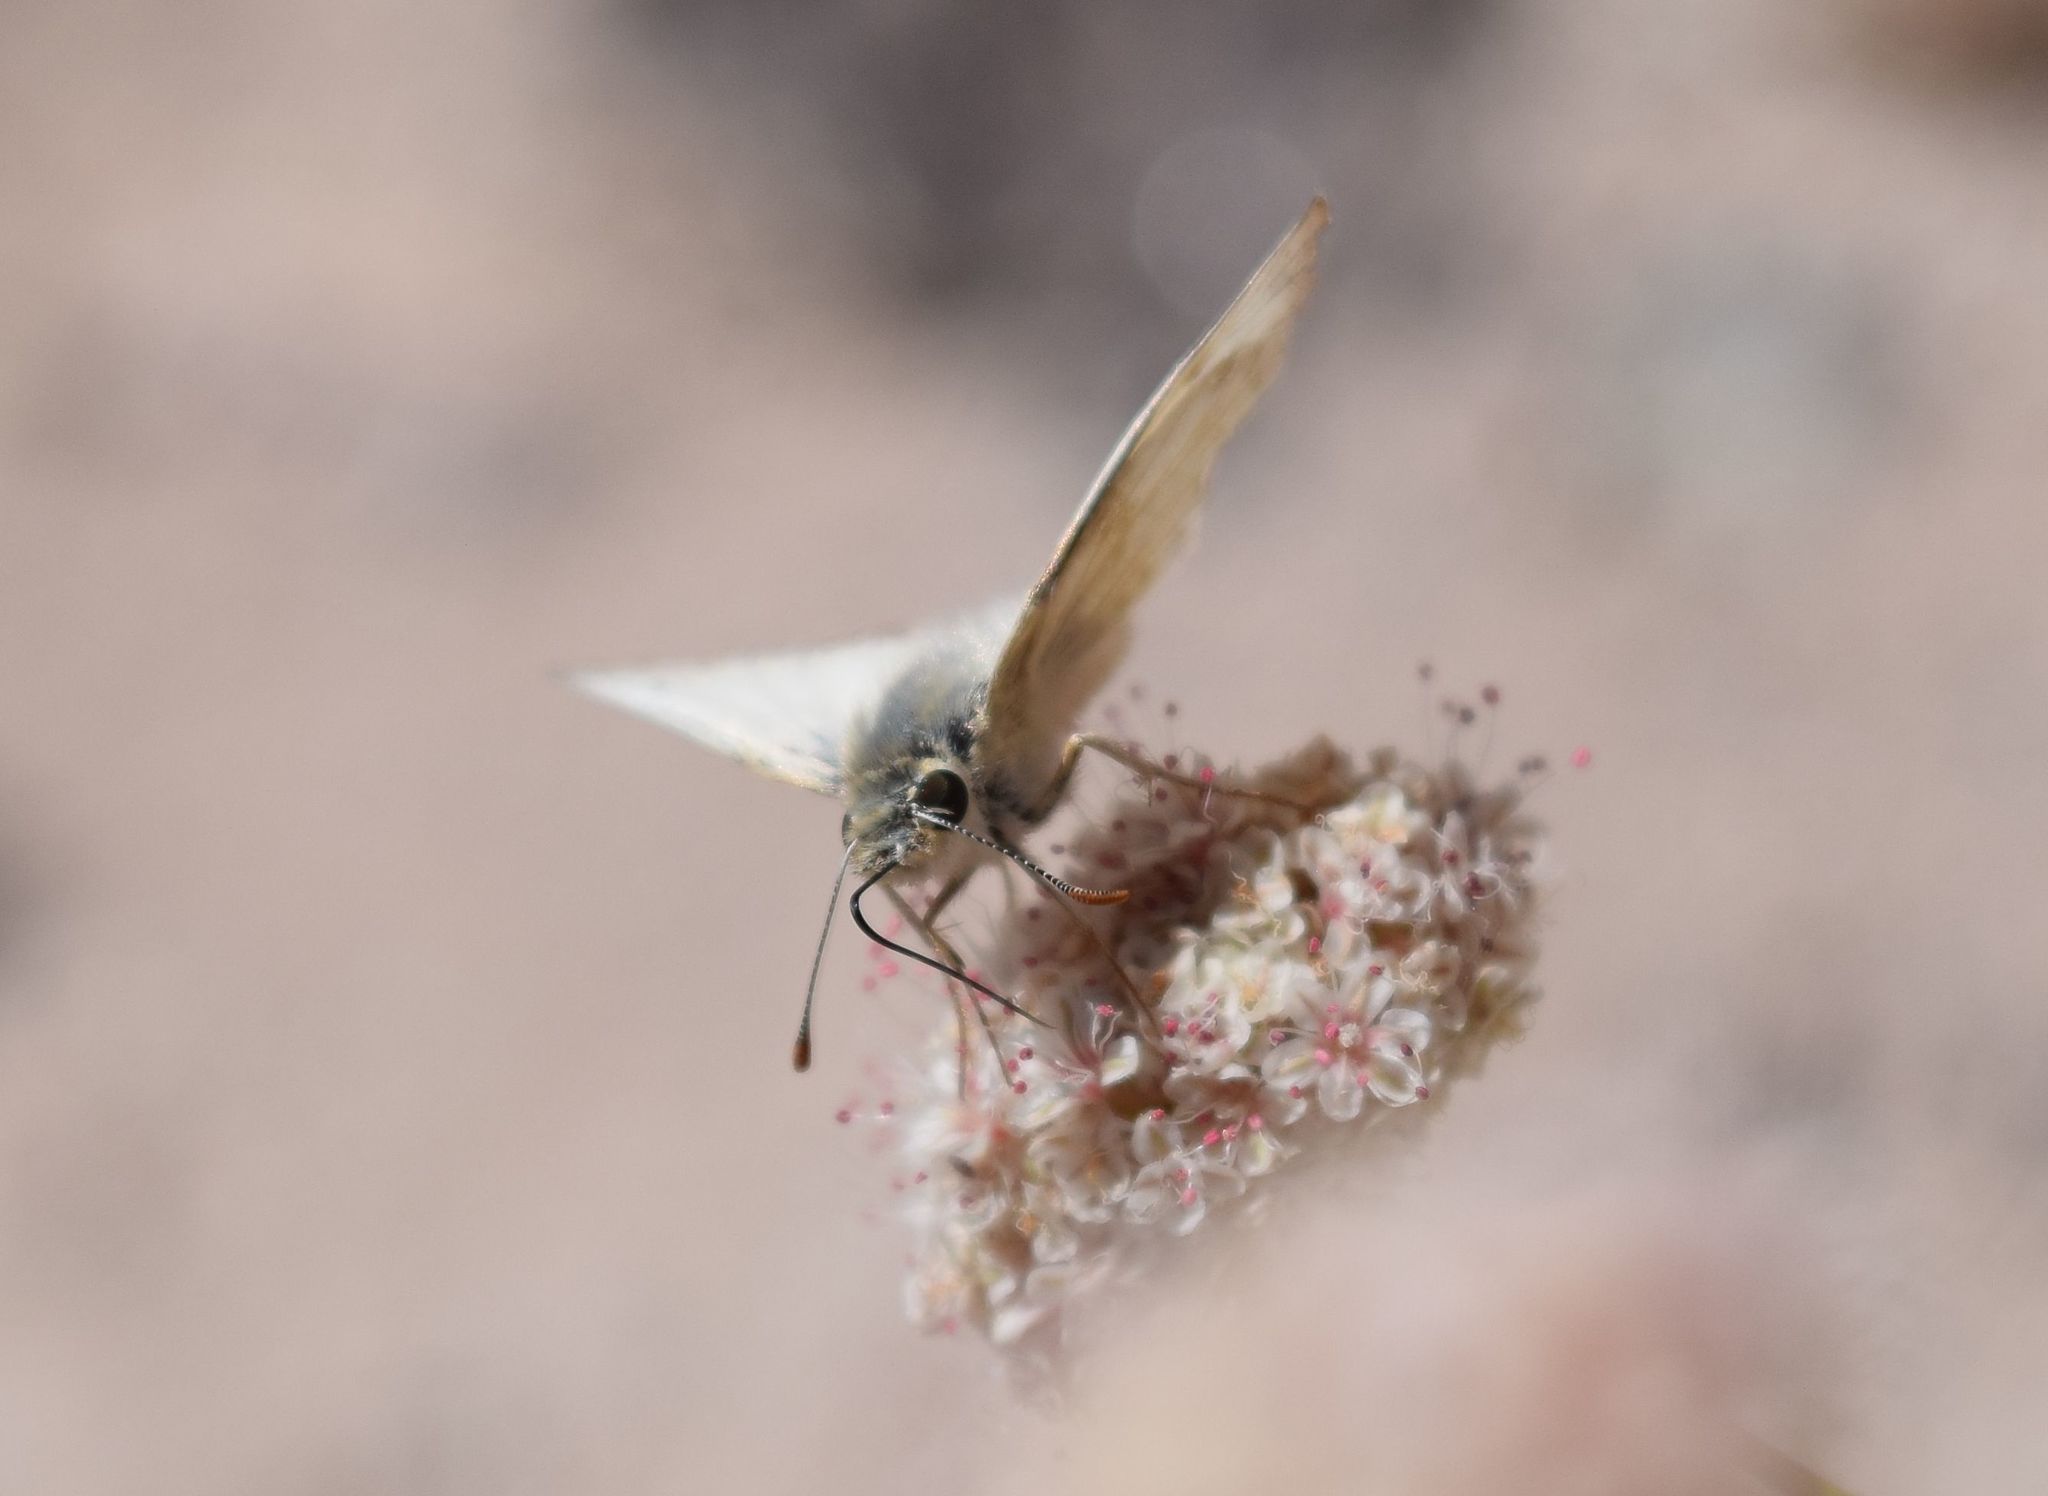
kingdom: Animalia
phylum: Arthropoda
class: Insecta
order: Lepidoptera
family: Hesperiidae
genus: Heliopetes
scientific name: Heliopetes ericetorum
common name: Northern white-skipper
